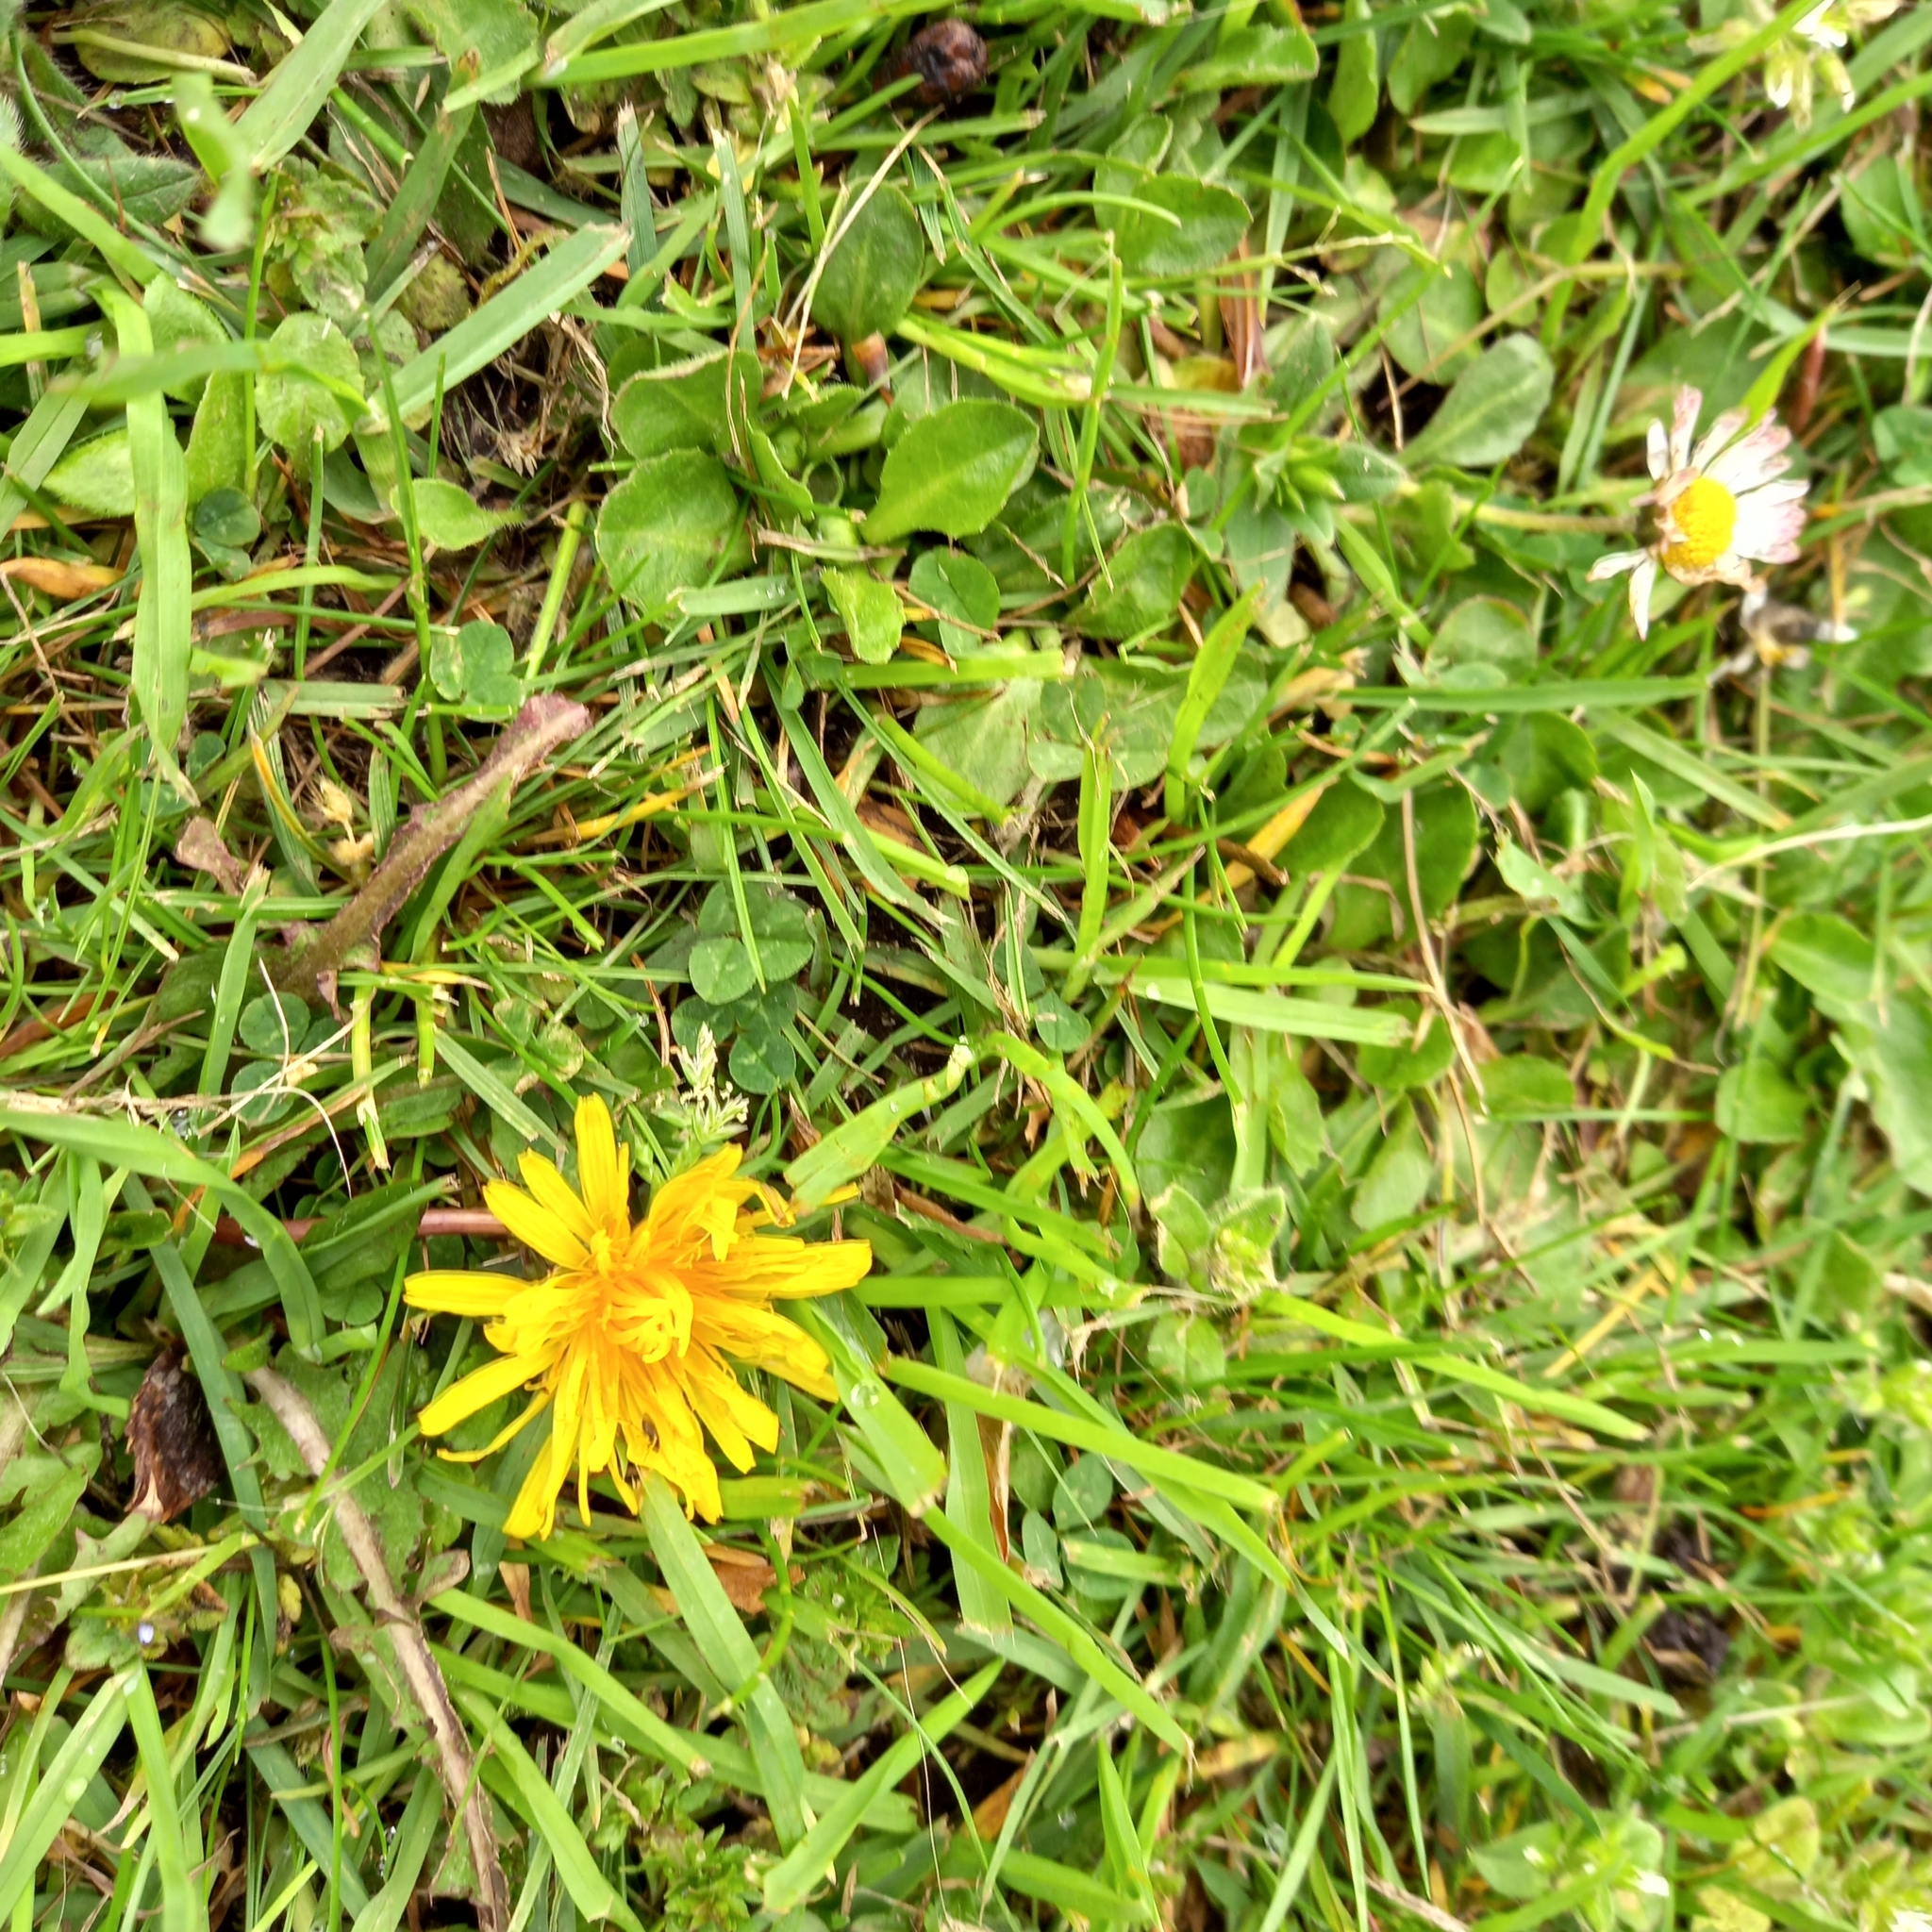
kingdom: Plantae
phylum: Tracheophyta
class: Magnoliopsida
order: Asterales
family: Asteraceae
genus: Bellis
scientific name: Bellis perennis
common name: Lawndaisy
